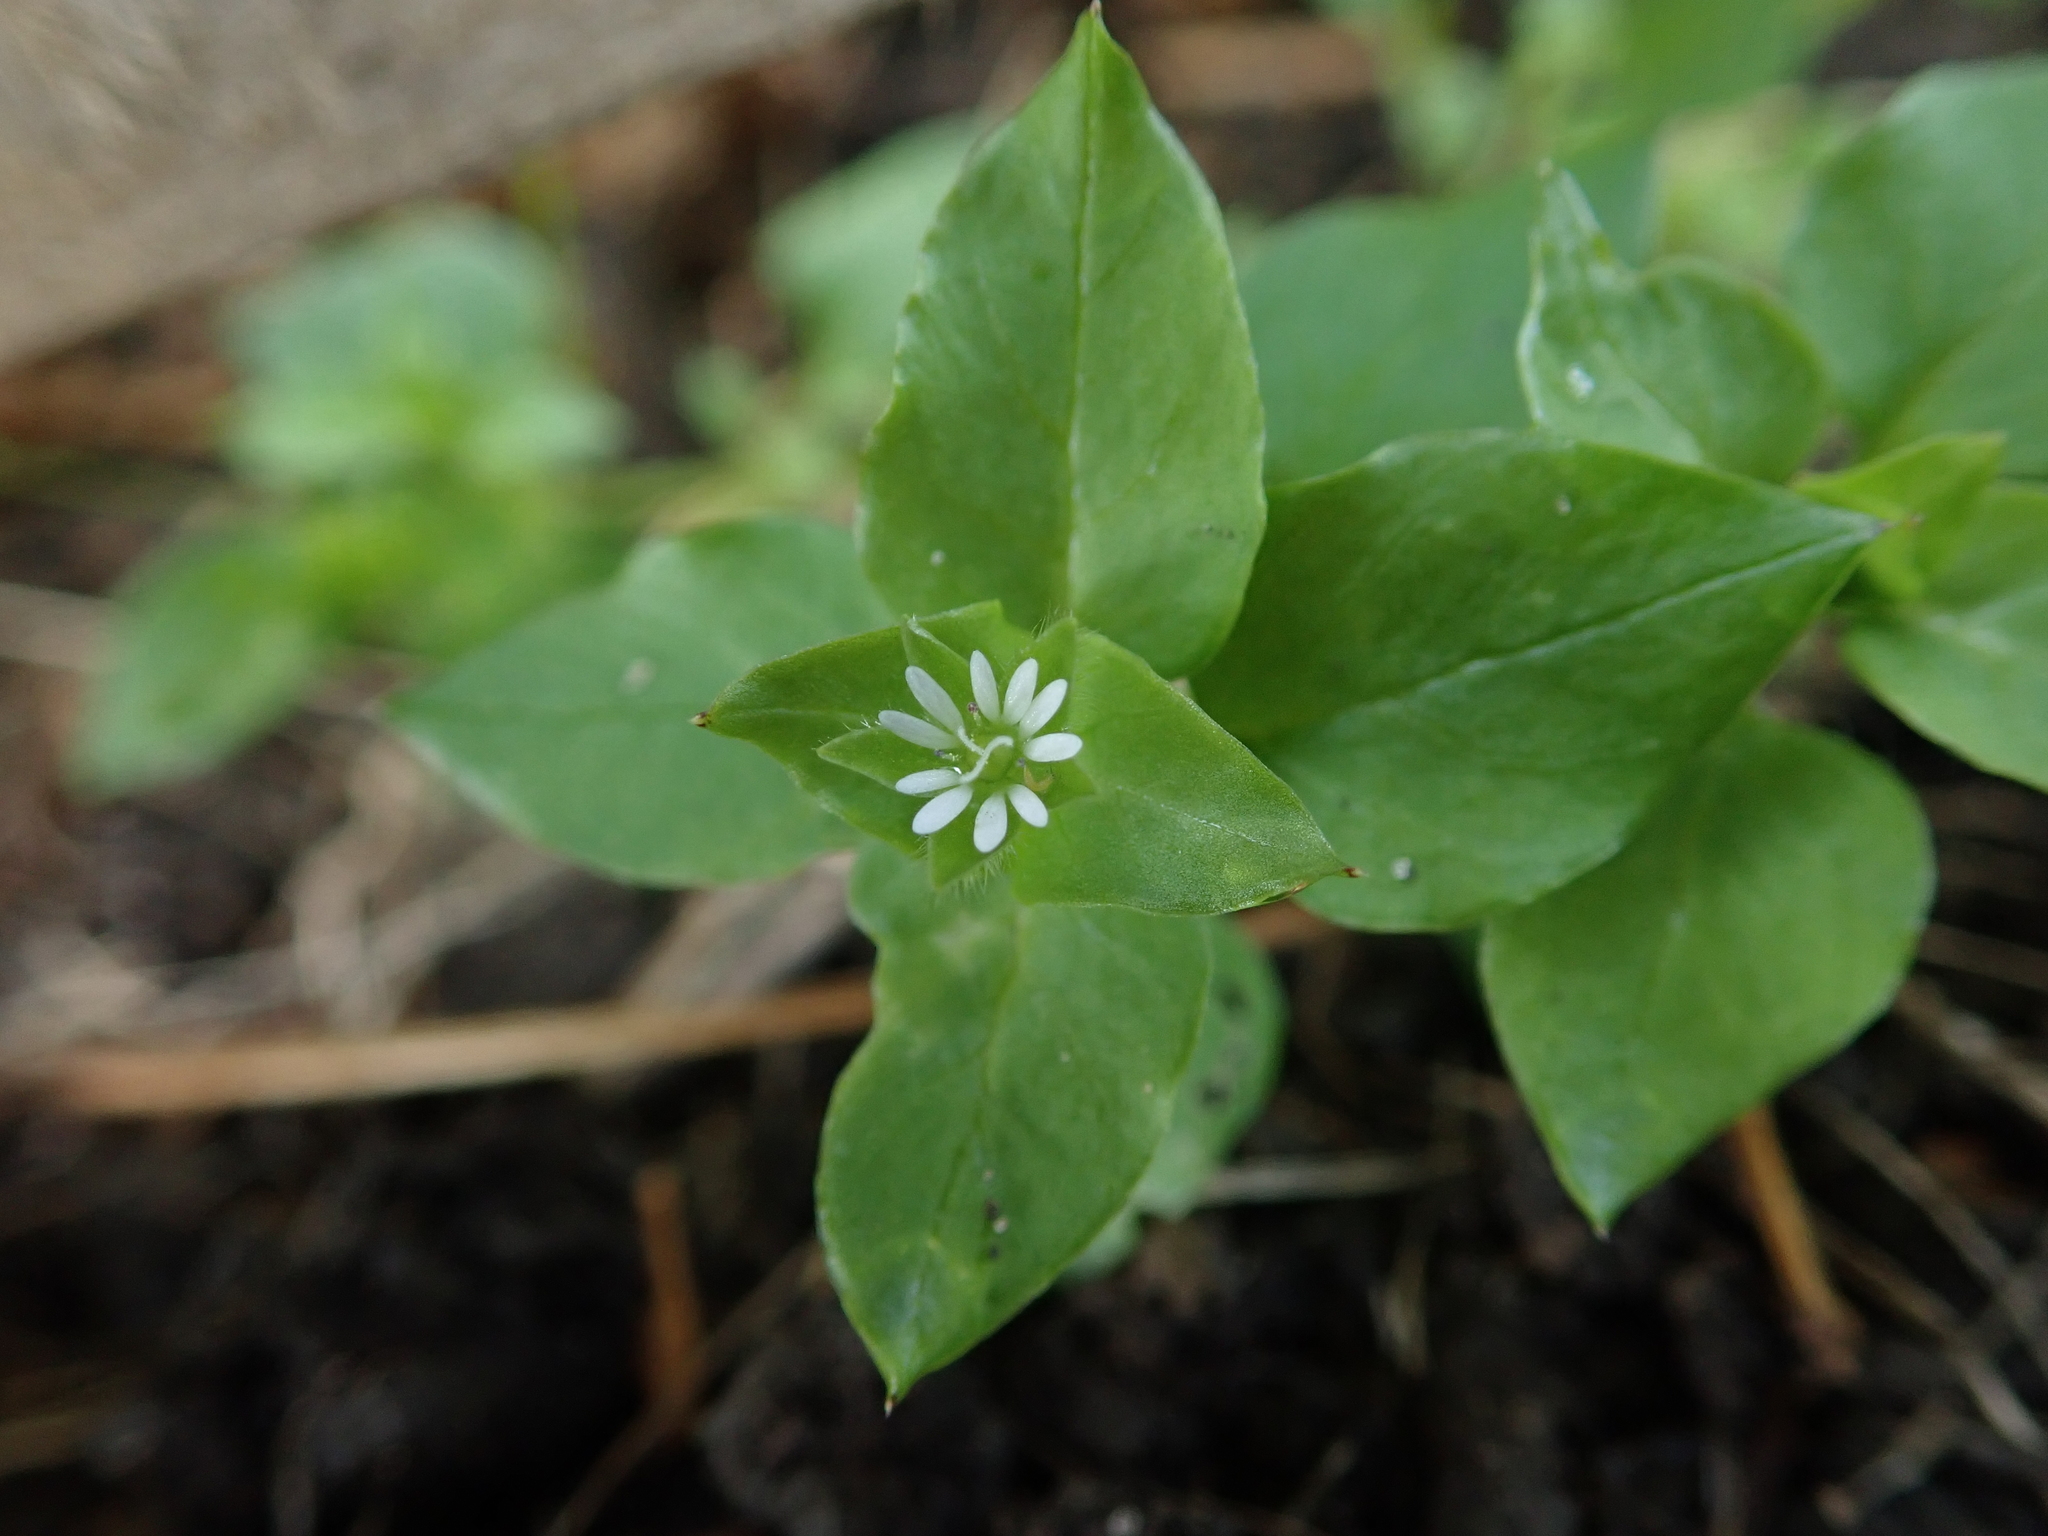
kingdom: Plantae
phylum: Tracheophyta
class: Magnoliopsida
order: Caryophyllales
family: Caryophyllaceae
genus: Stellaria
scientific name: Stellaria media
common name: Common chickweed
